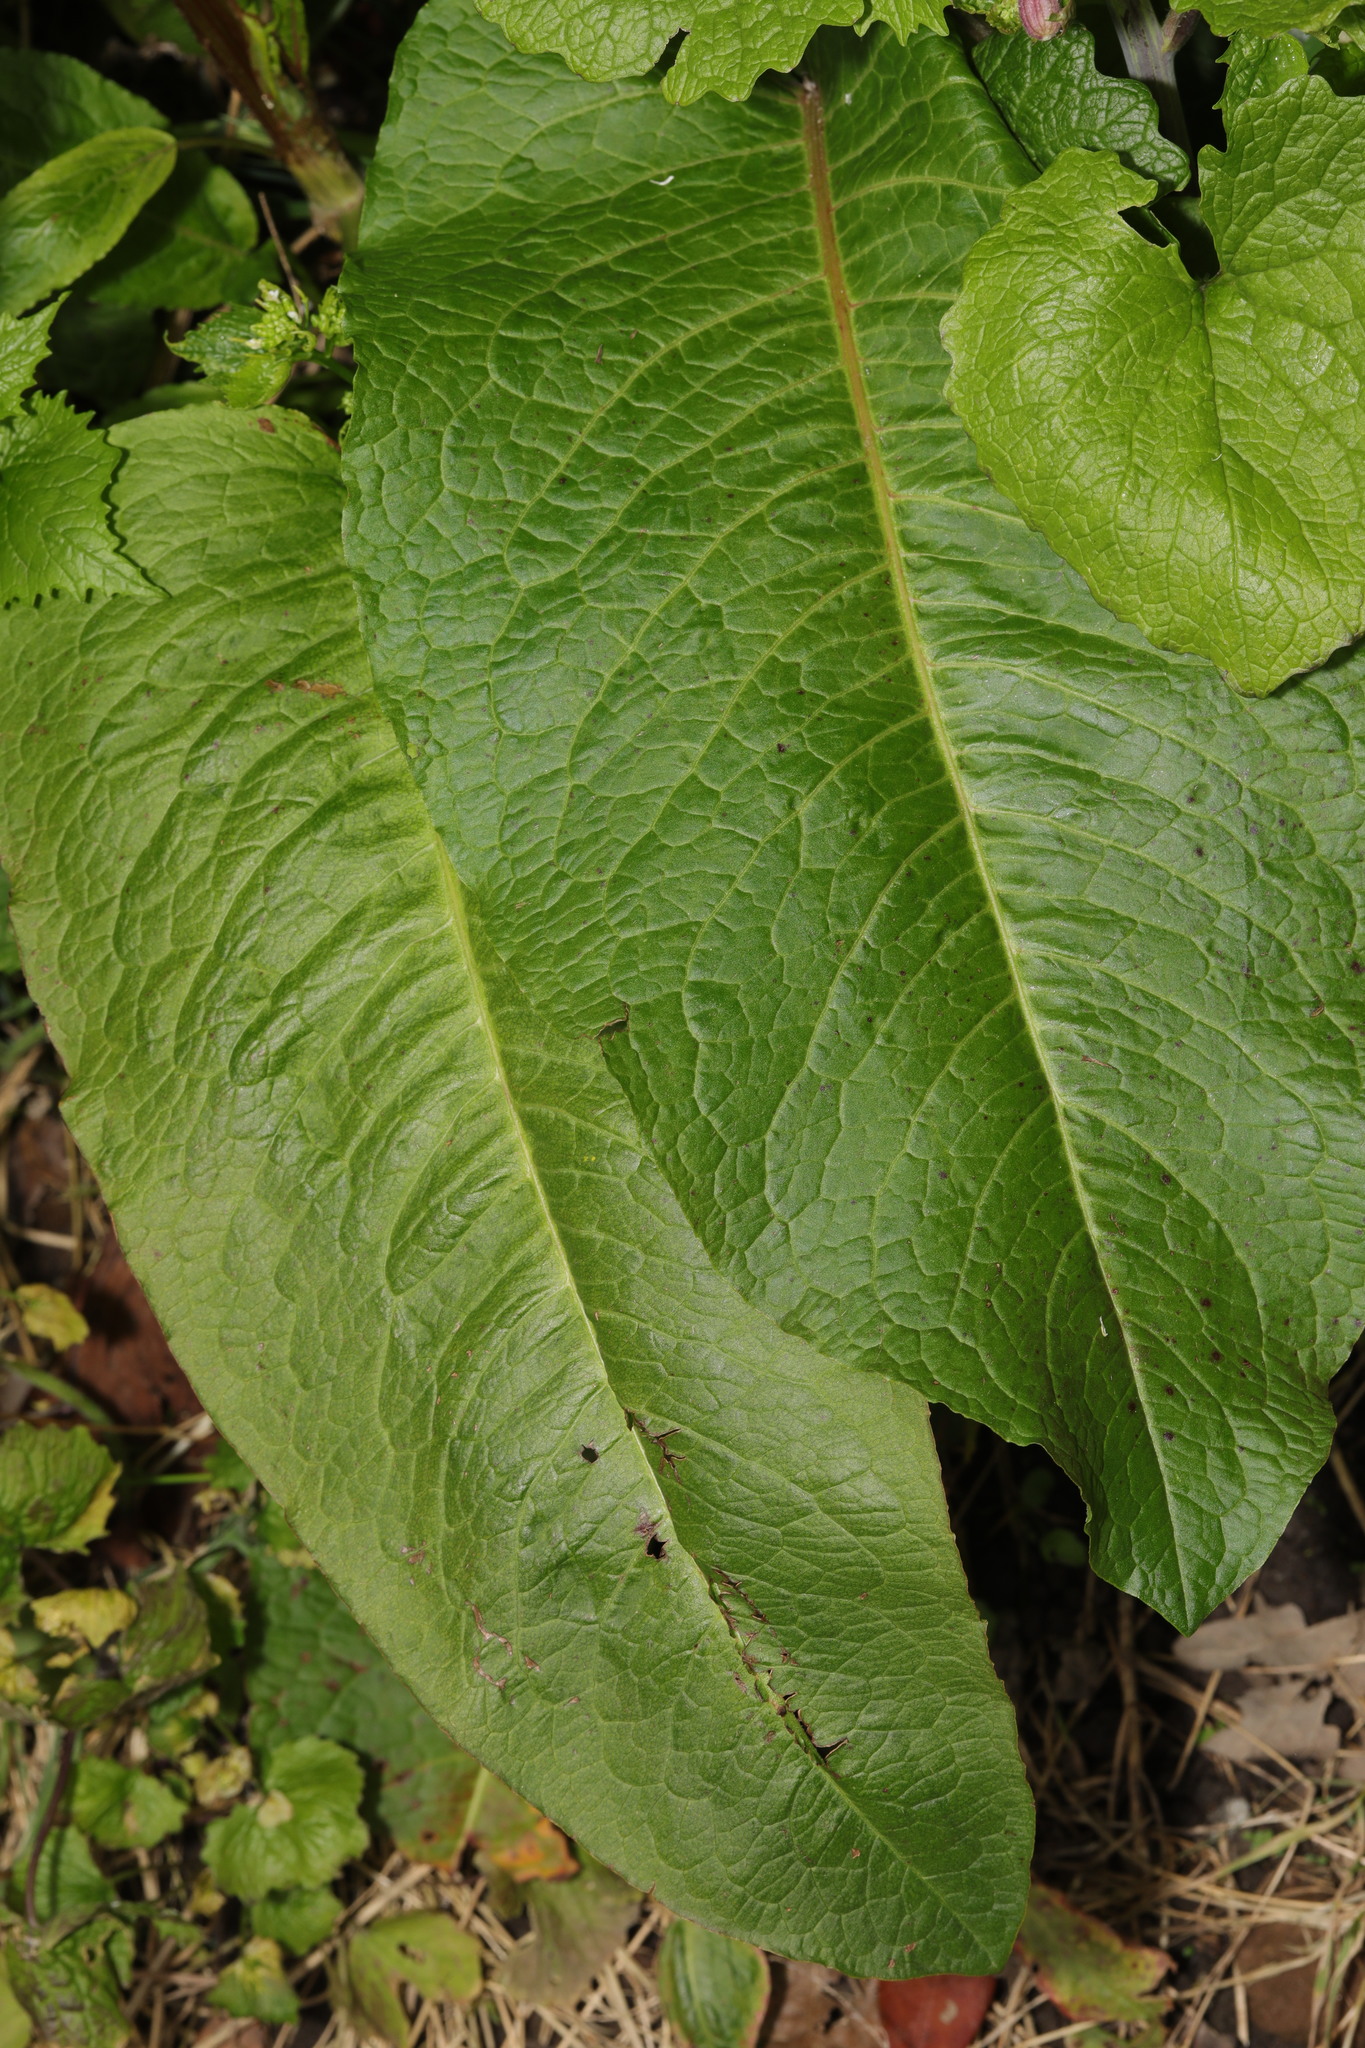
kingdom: Plantae
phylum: Tracheophyta
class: Magnoliopsida
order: Caryophyllales
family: Polygonaceae
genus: Rumex
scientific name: Rumex obtusifolius
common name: Bitter dock
